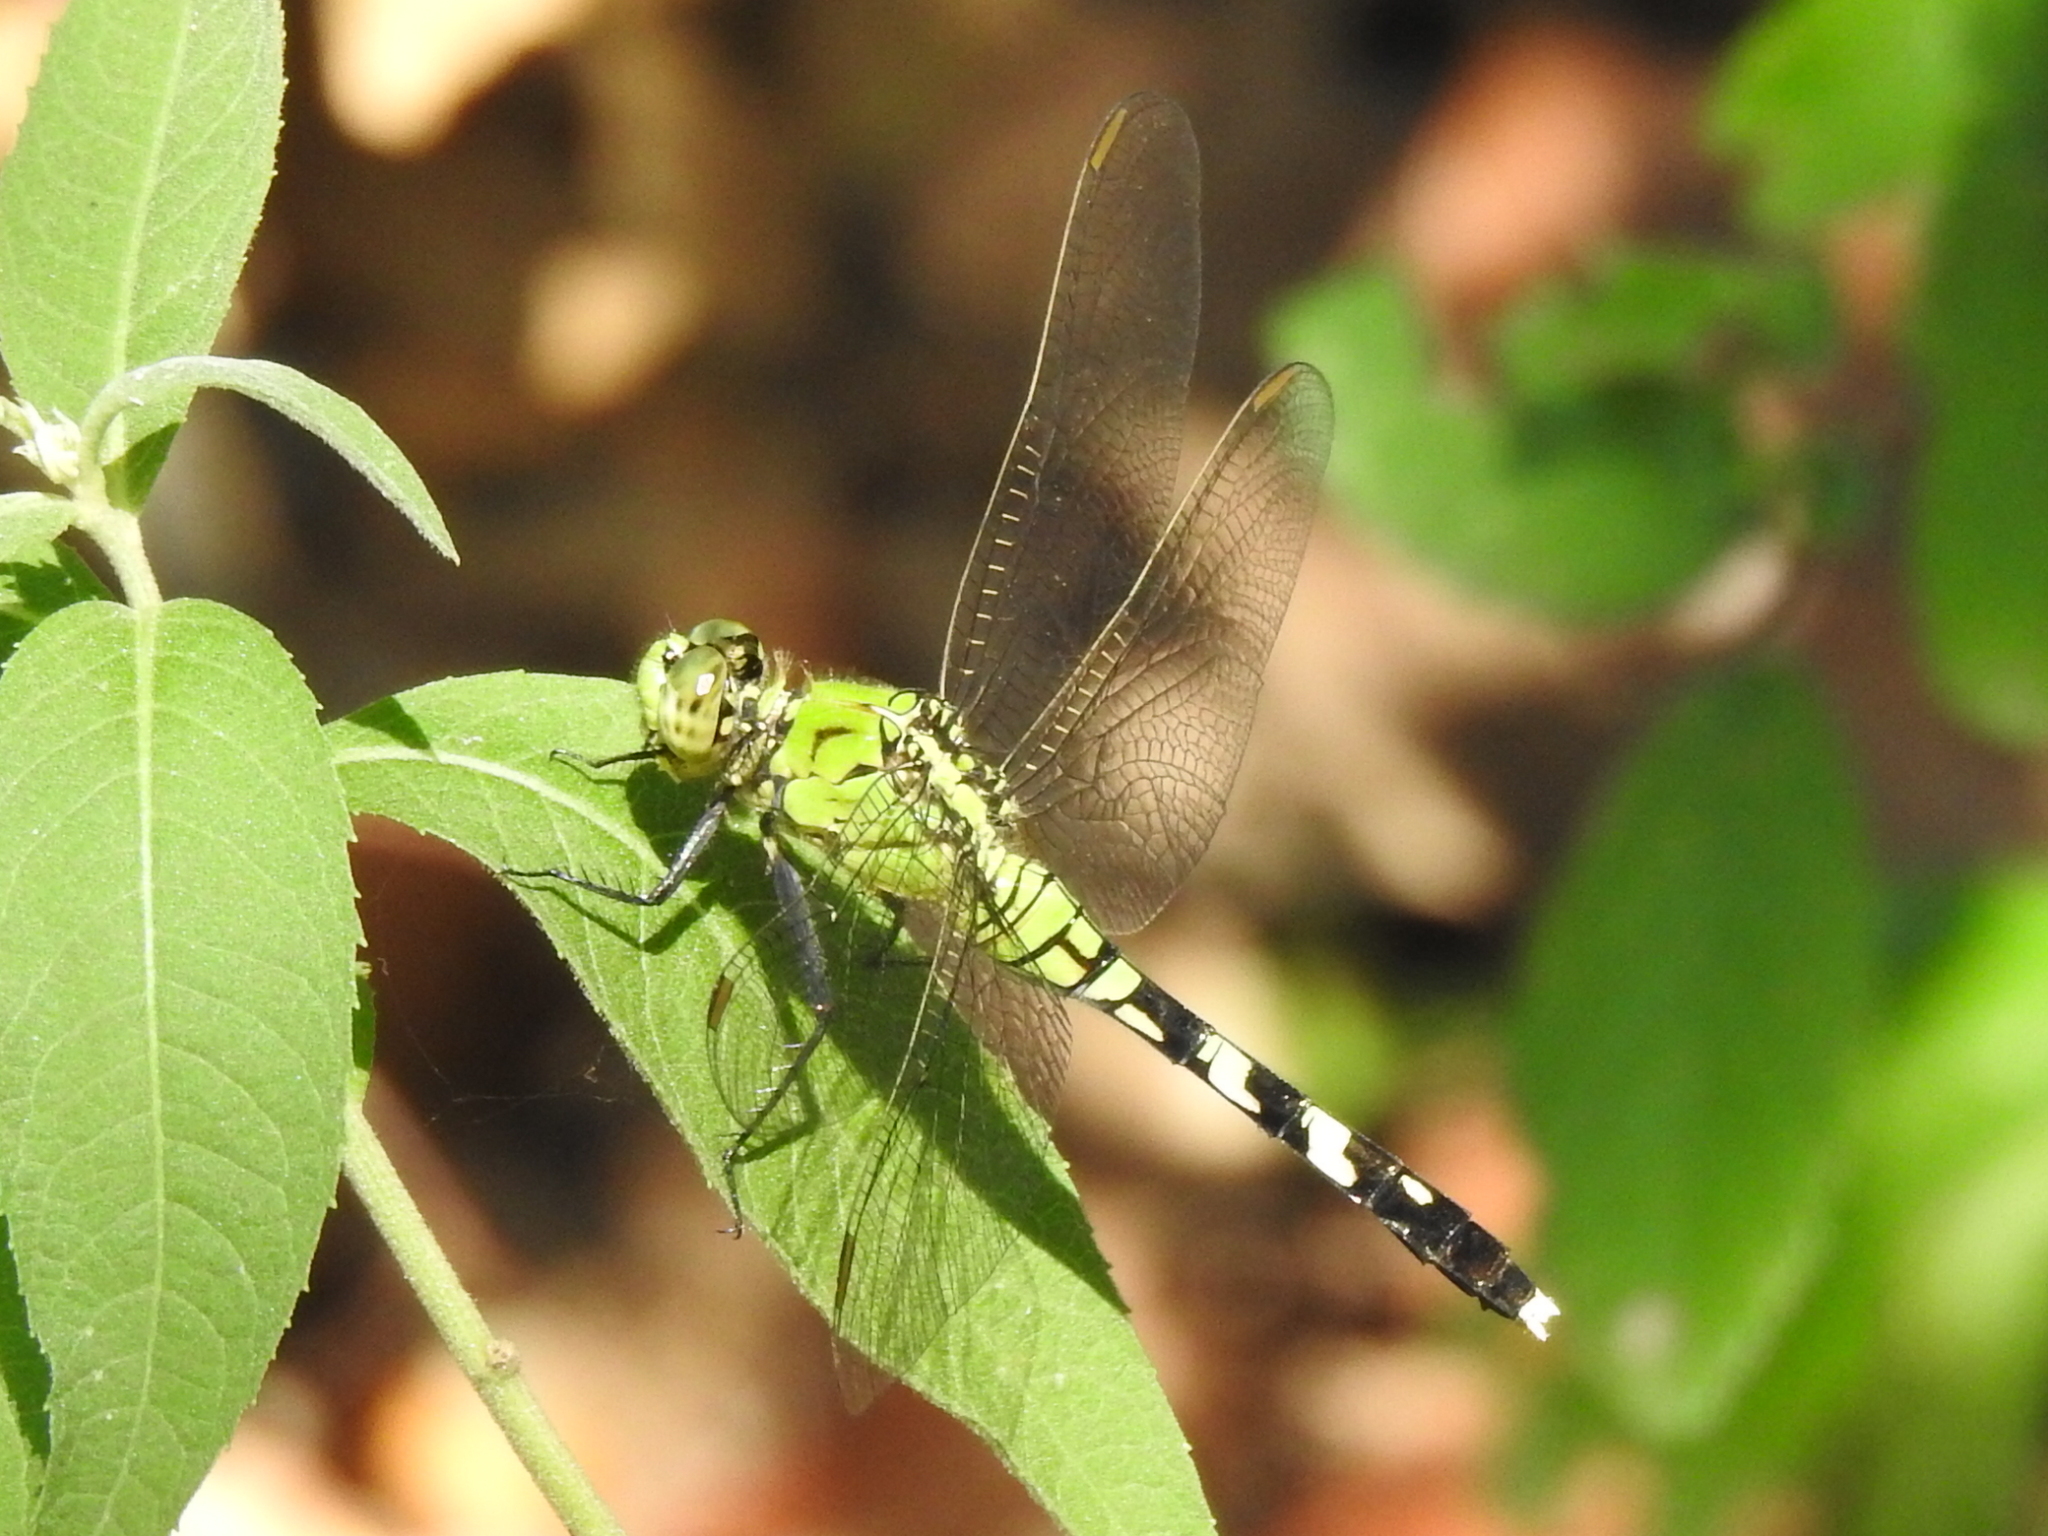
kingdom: Animalia
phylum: Arthropoda
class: Insecta
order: Odonata
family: Libellulidae
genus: Erythemis
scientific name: Erythemis simplicicollis
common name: Eastern pondhawk
